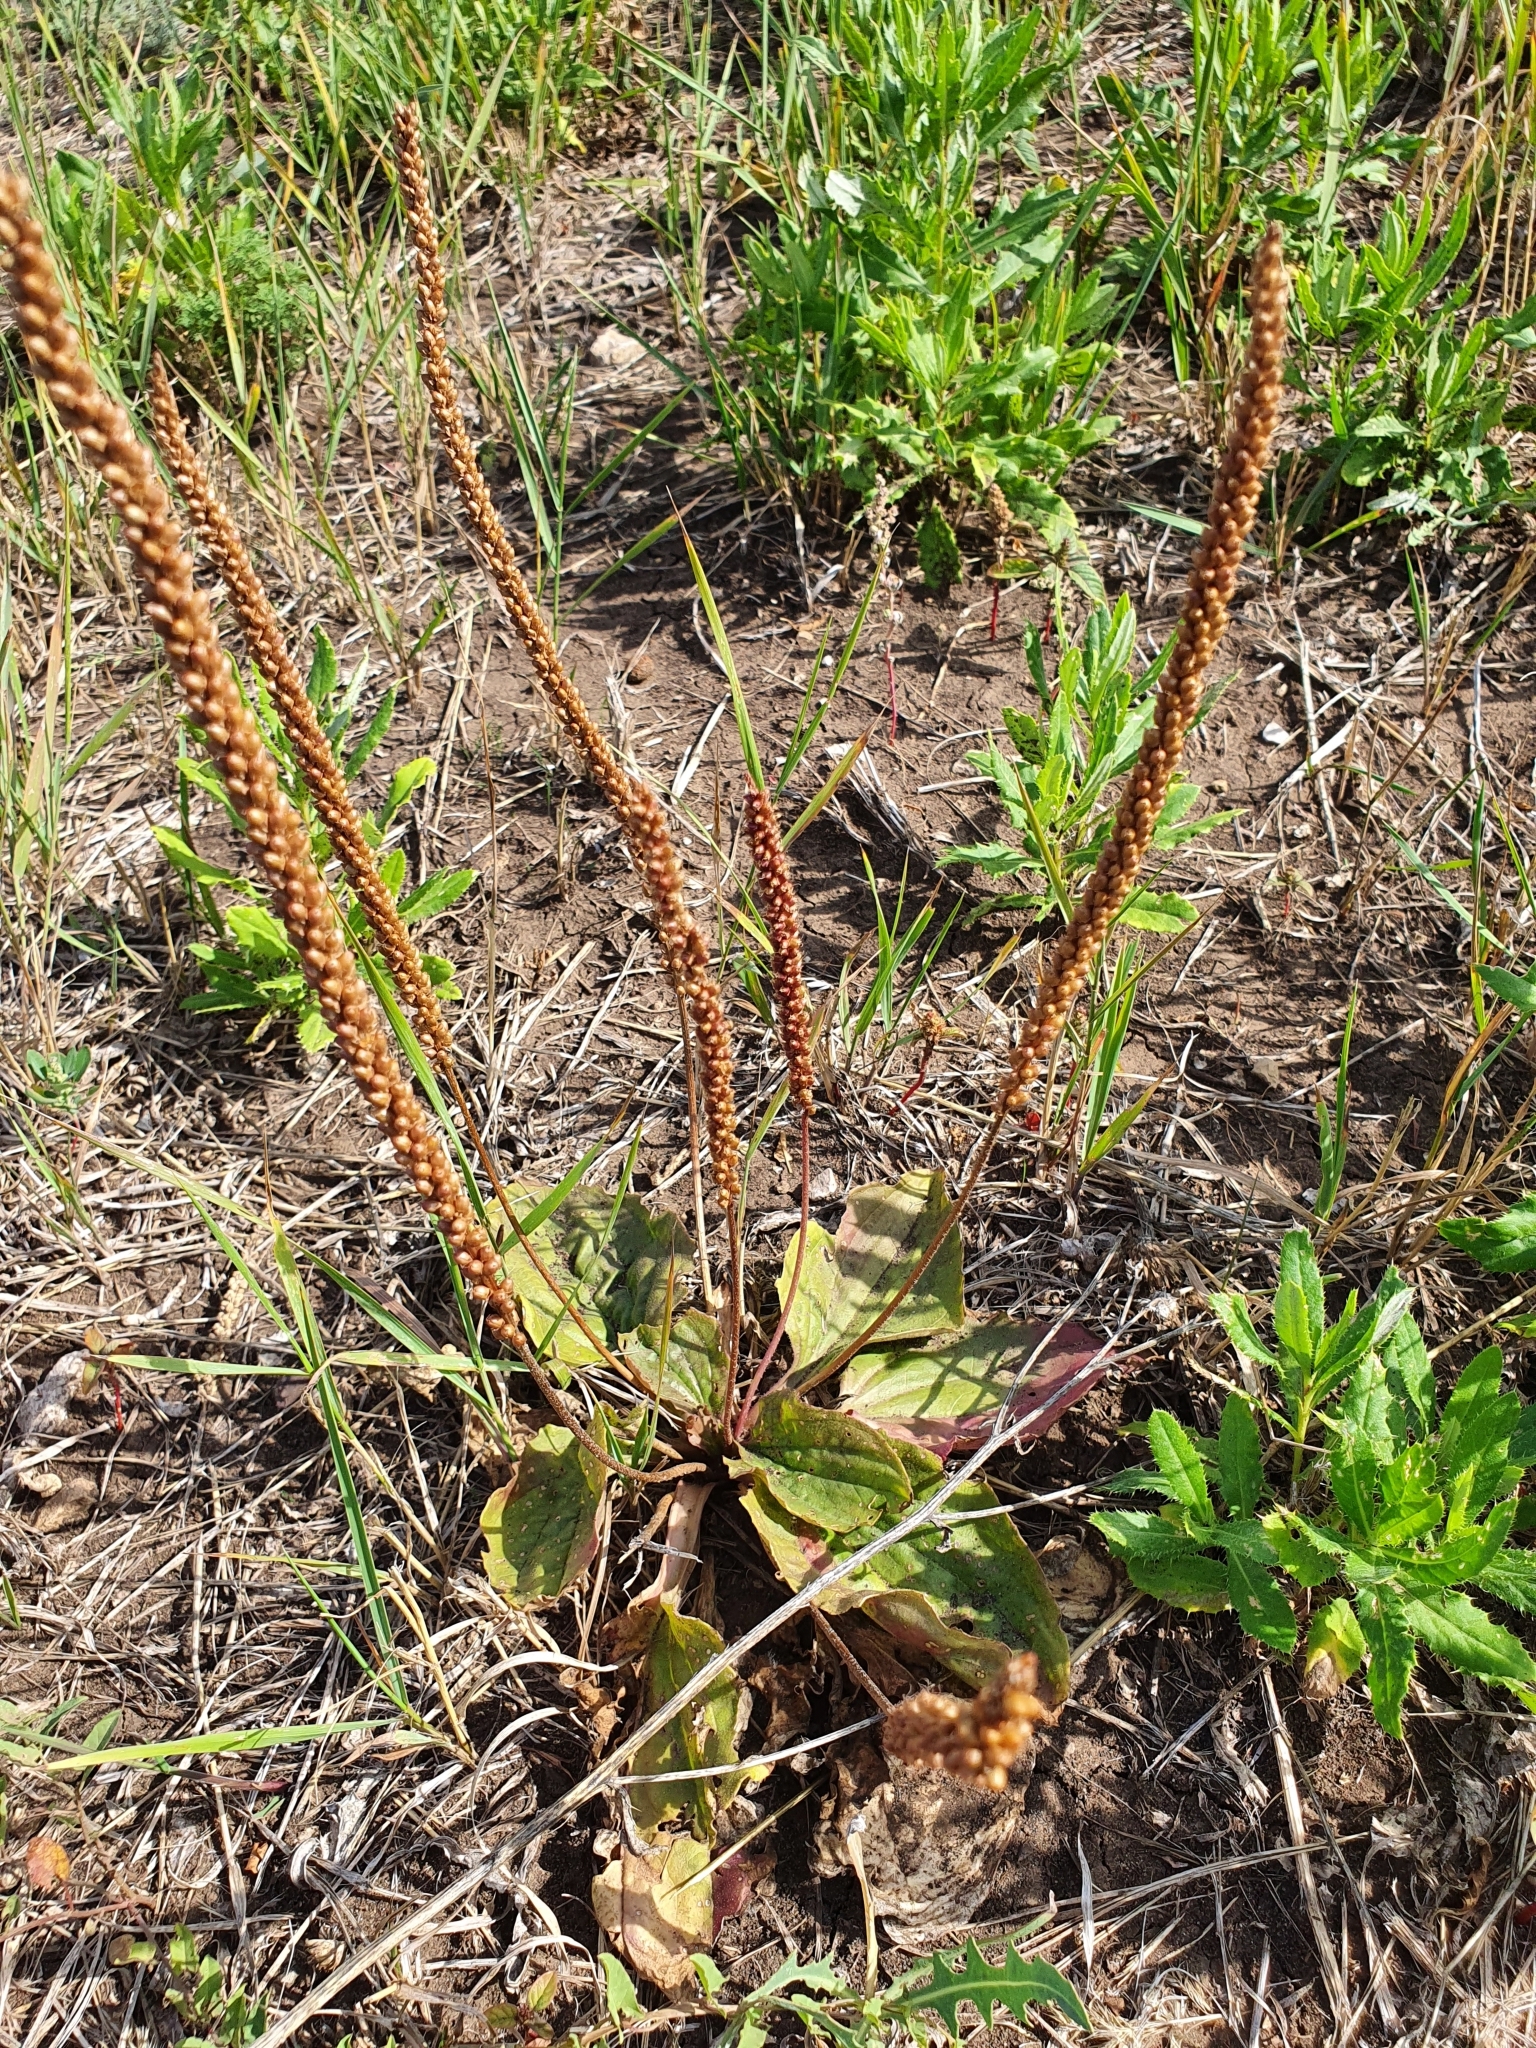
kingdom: Plantae
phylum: Tracheophyta
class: Magnoliopsida
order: Lamiales
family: Plantaginaceae
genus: Plantago
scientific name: Plantago uliginosa
